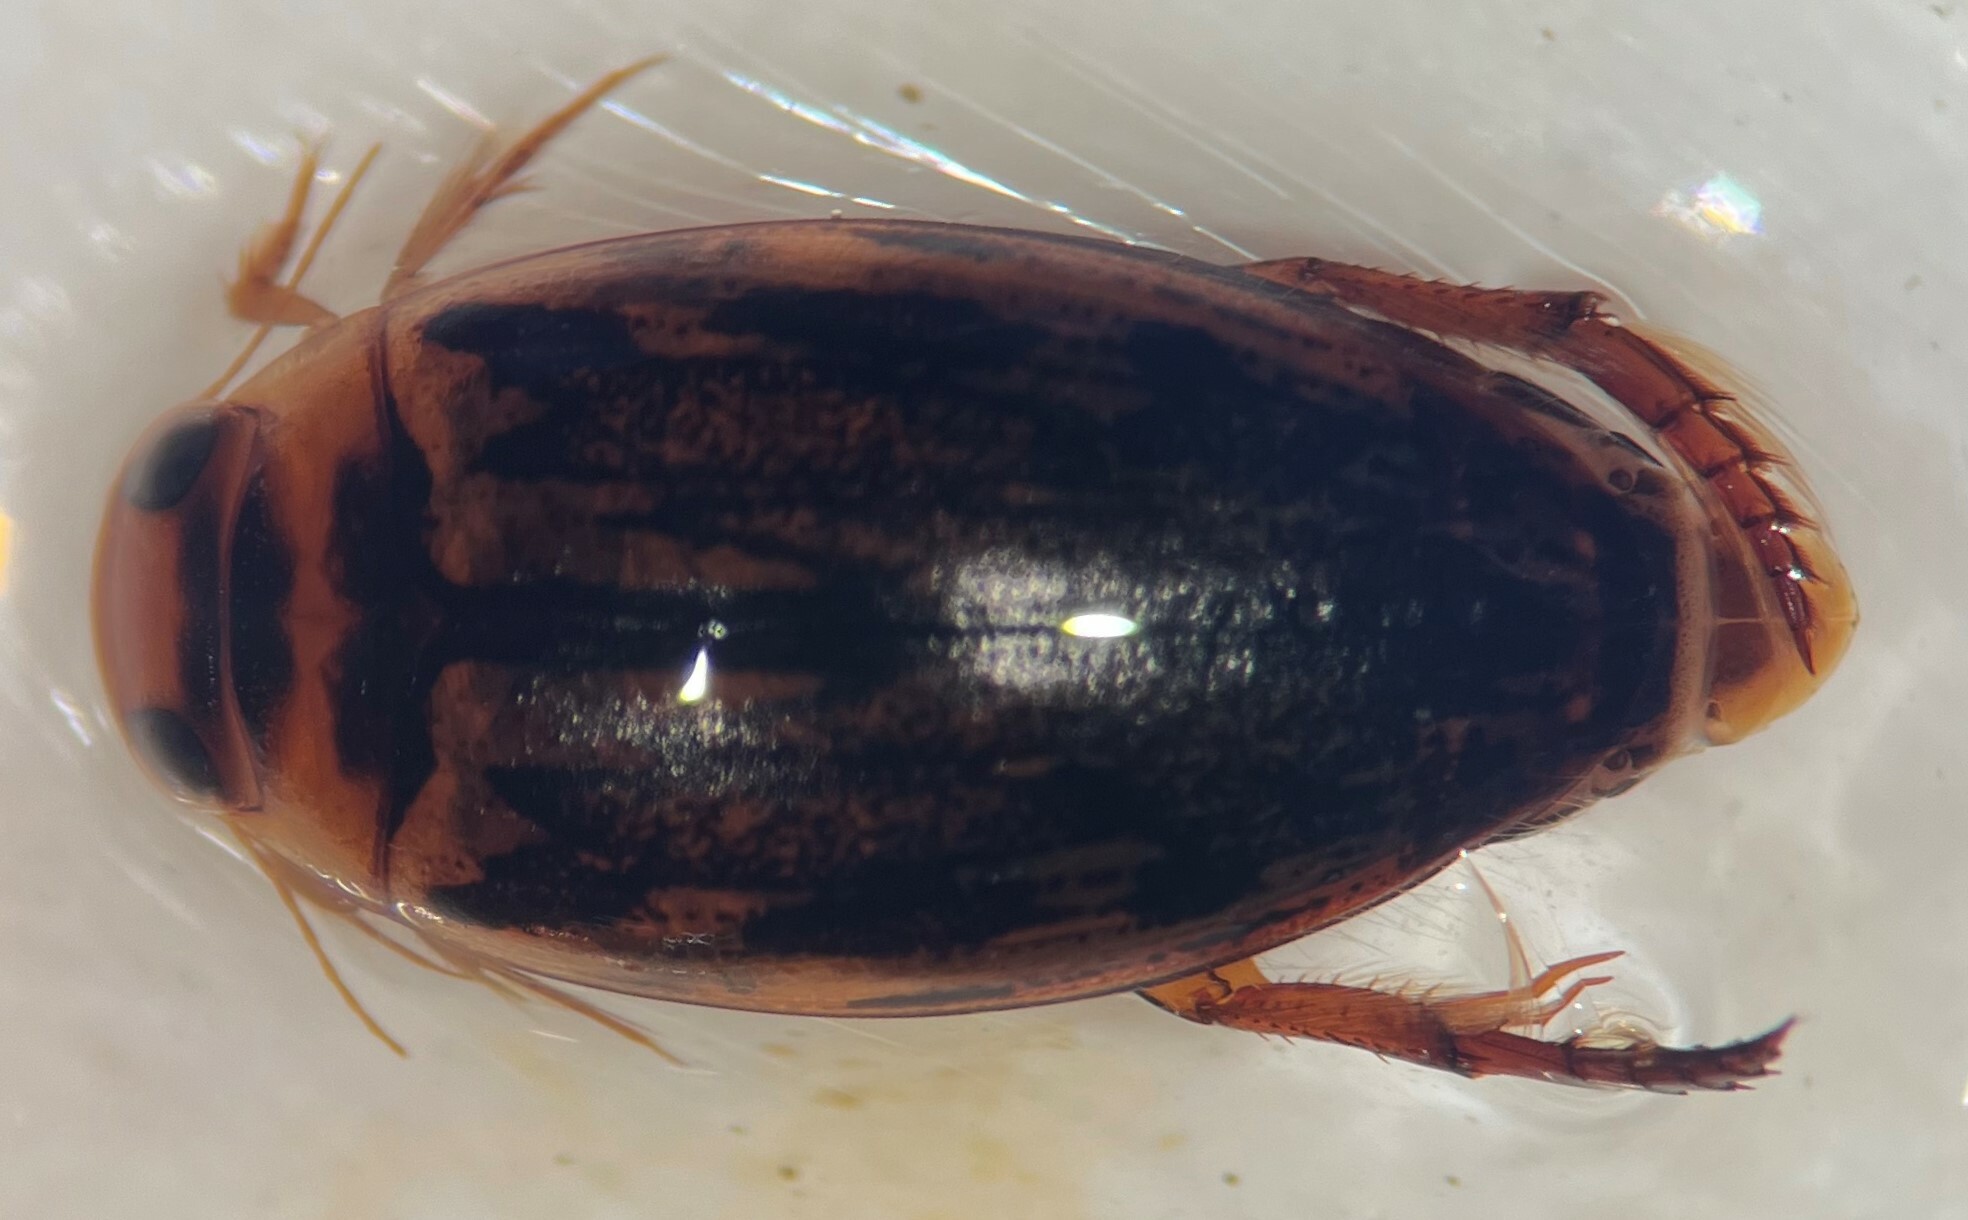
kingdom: Animalia
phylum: Arthropoda
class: Insecta
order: Coleoptera
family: Dytiscidae
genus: Coptotomus
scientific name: Coptotomus venustus
